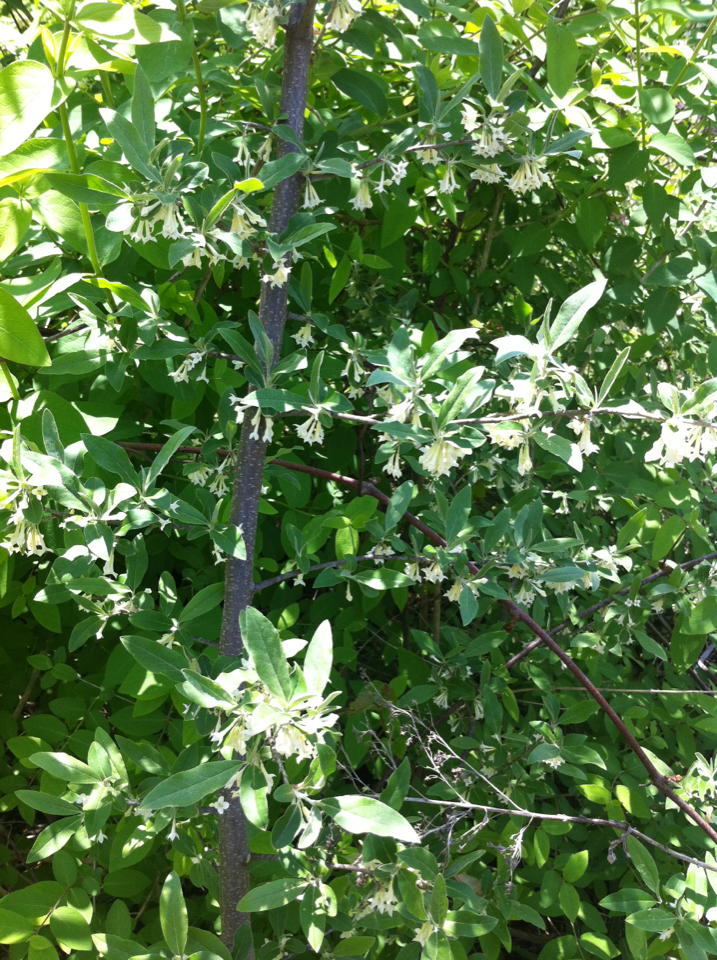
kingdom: Plantae
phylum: Tracheophyta
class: Magnoliopsida
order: Rosales
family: Elaeagnaceae
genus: Elaeagnus
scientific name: Elaeagnus umbellata
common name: Autumn olive
